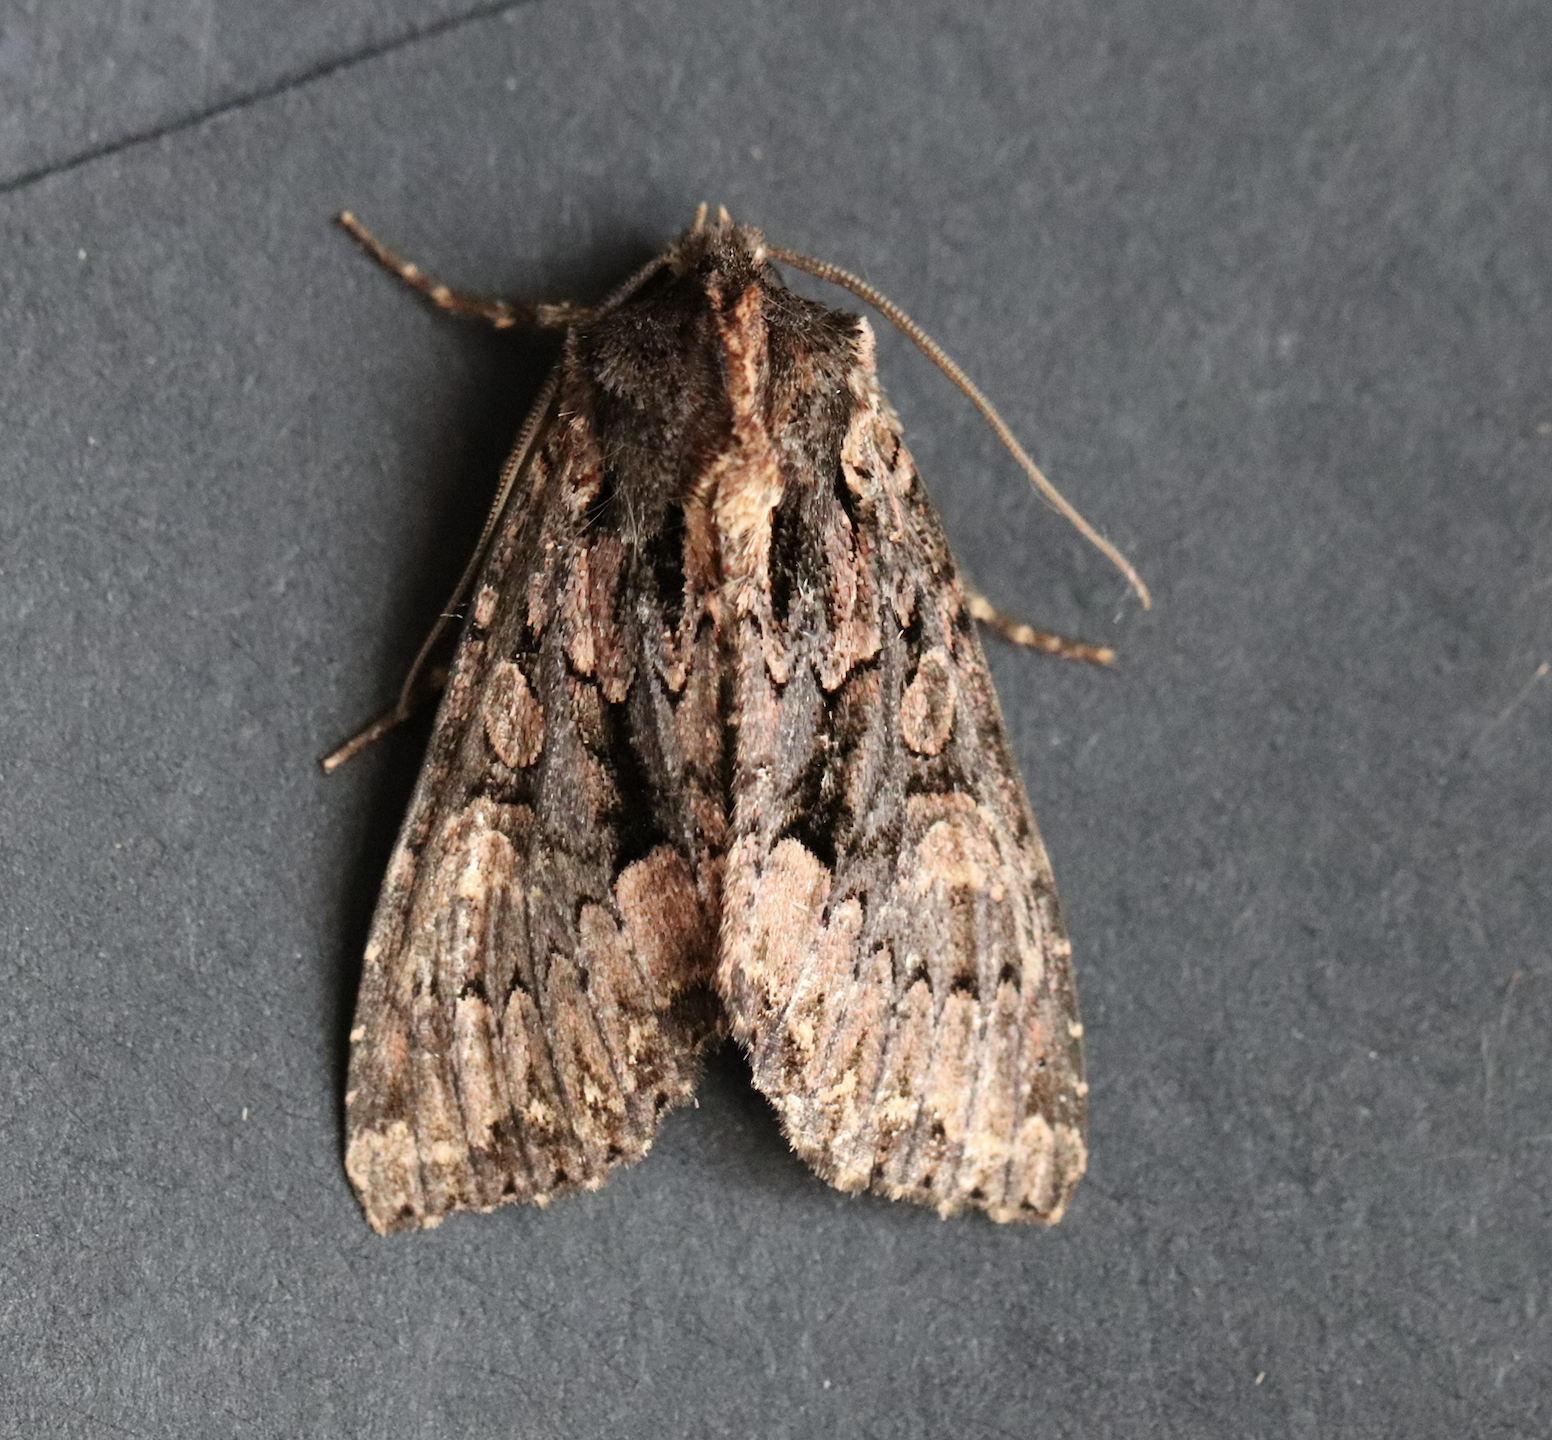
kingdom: Animalia
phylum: Arthropoda
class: Insecta
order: Lepidoptera
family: Noctuidae
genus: Mniotype
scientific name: Mniotype satura
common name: Beautiful arches
